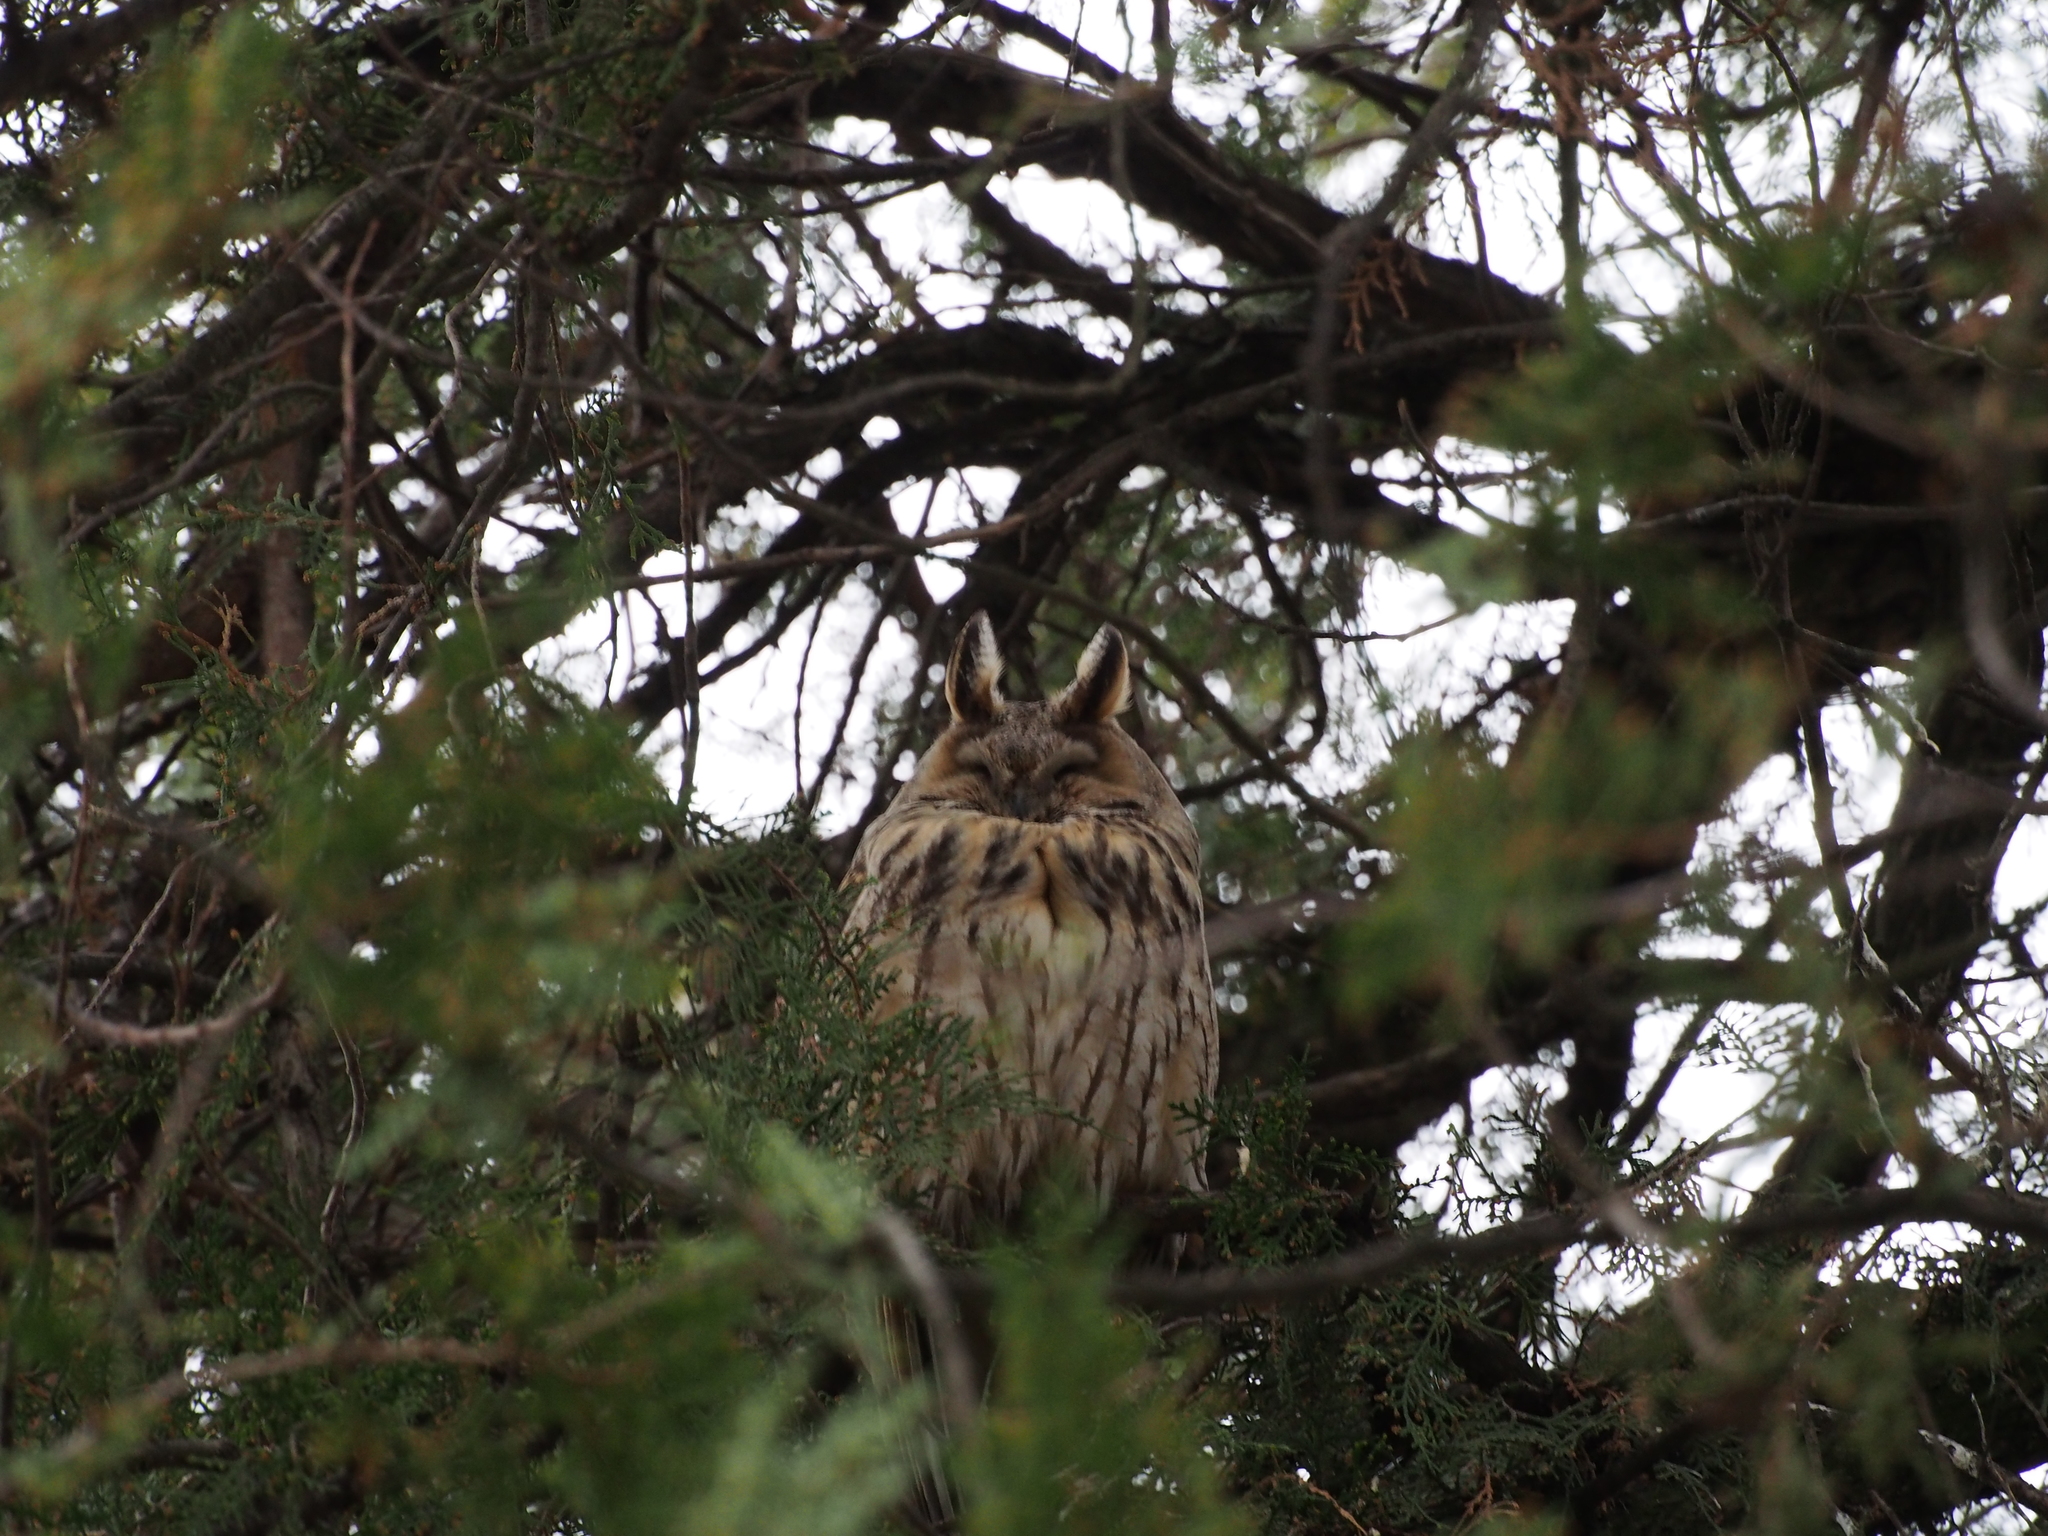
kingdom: Animalia
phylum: Chordata
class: Aves
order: Strigiformes
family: Strigidae
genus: Asio
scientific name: Asio otus
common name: Long-eared owl
